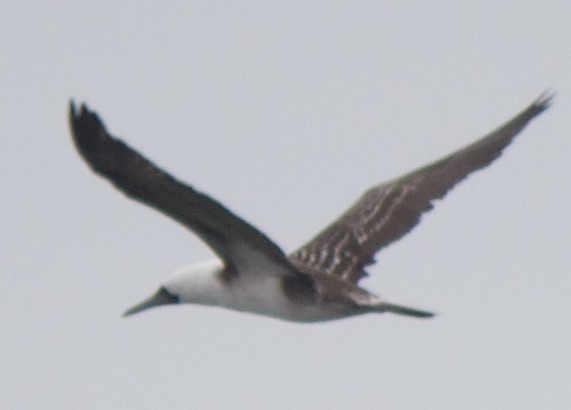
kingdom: Animalia
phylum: Chordata
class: Aves
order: Suliformes
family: Sulidae
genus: Sula
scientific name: Sula variegata
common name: Peruvian booby
